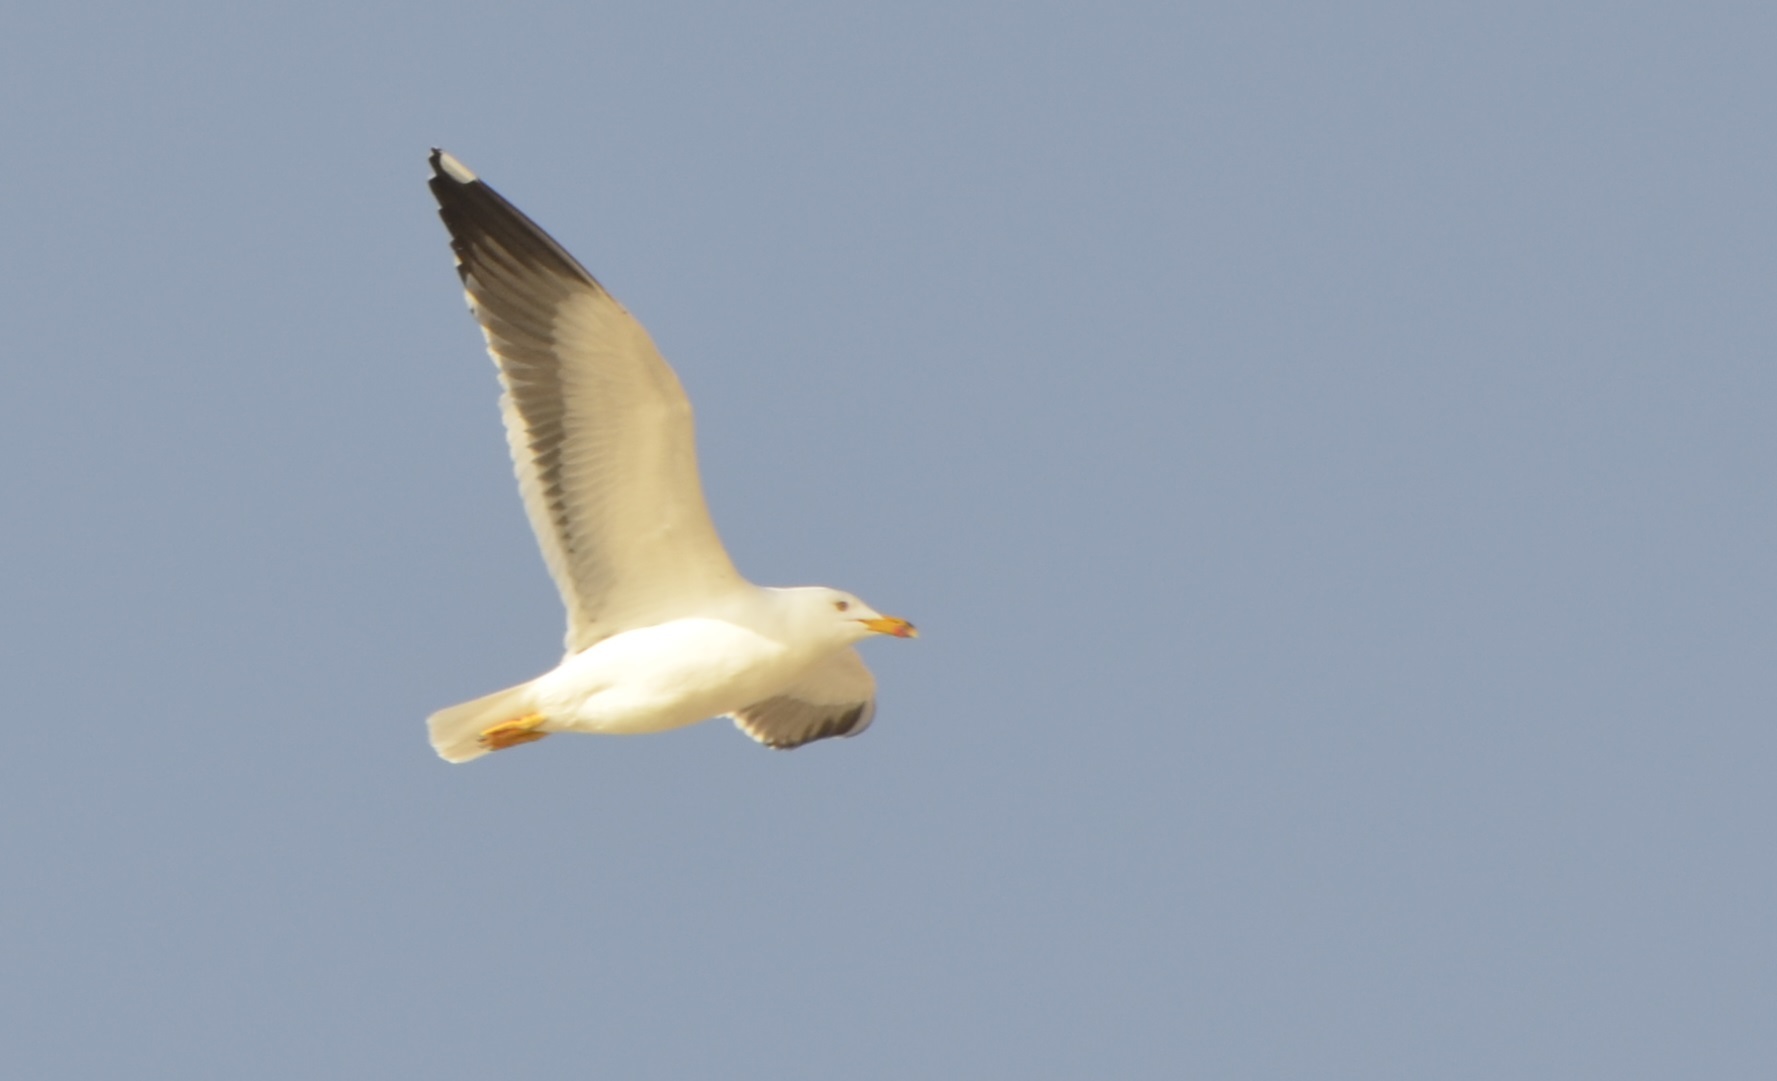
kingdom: Animalia
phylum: Chordata
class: Aves
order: Charadriiformes
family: Laridae
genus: Larus
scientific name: Larus fuscus
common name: Lesser black-backed gull
